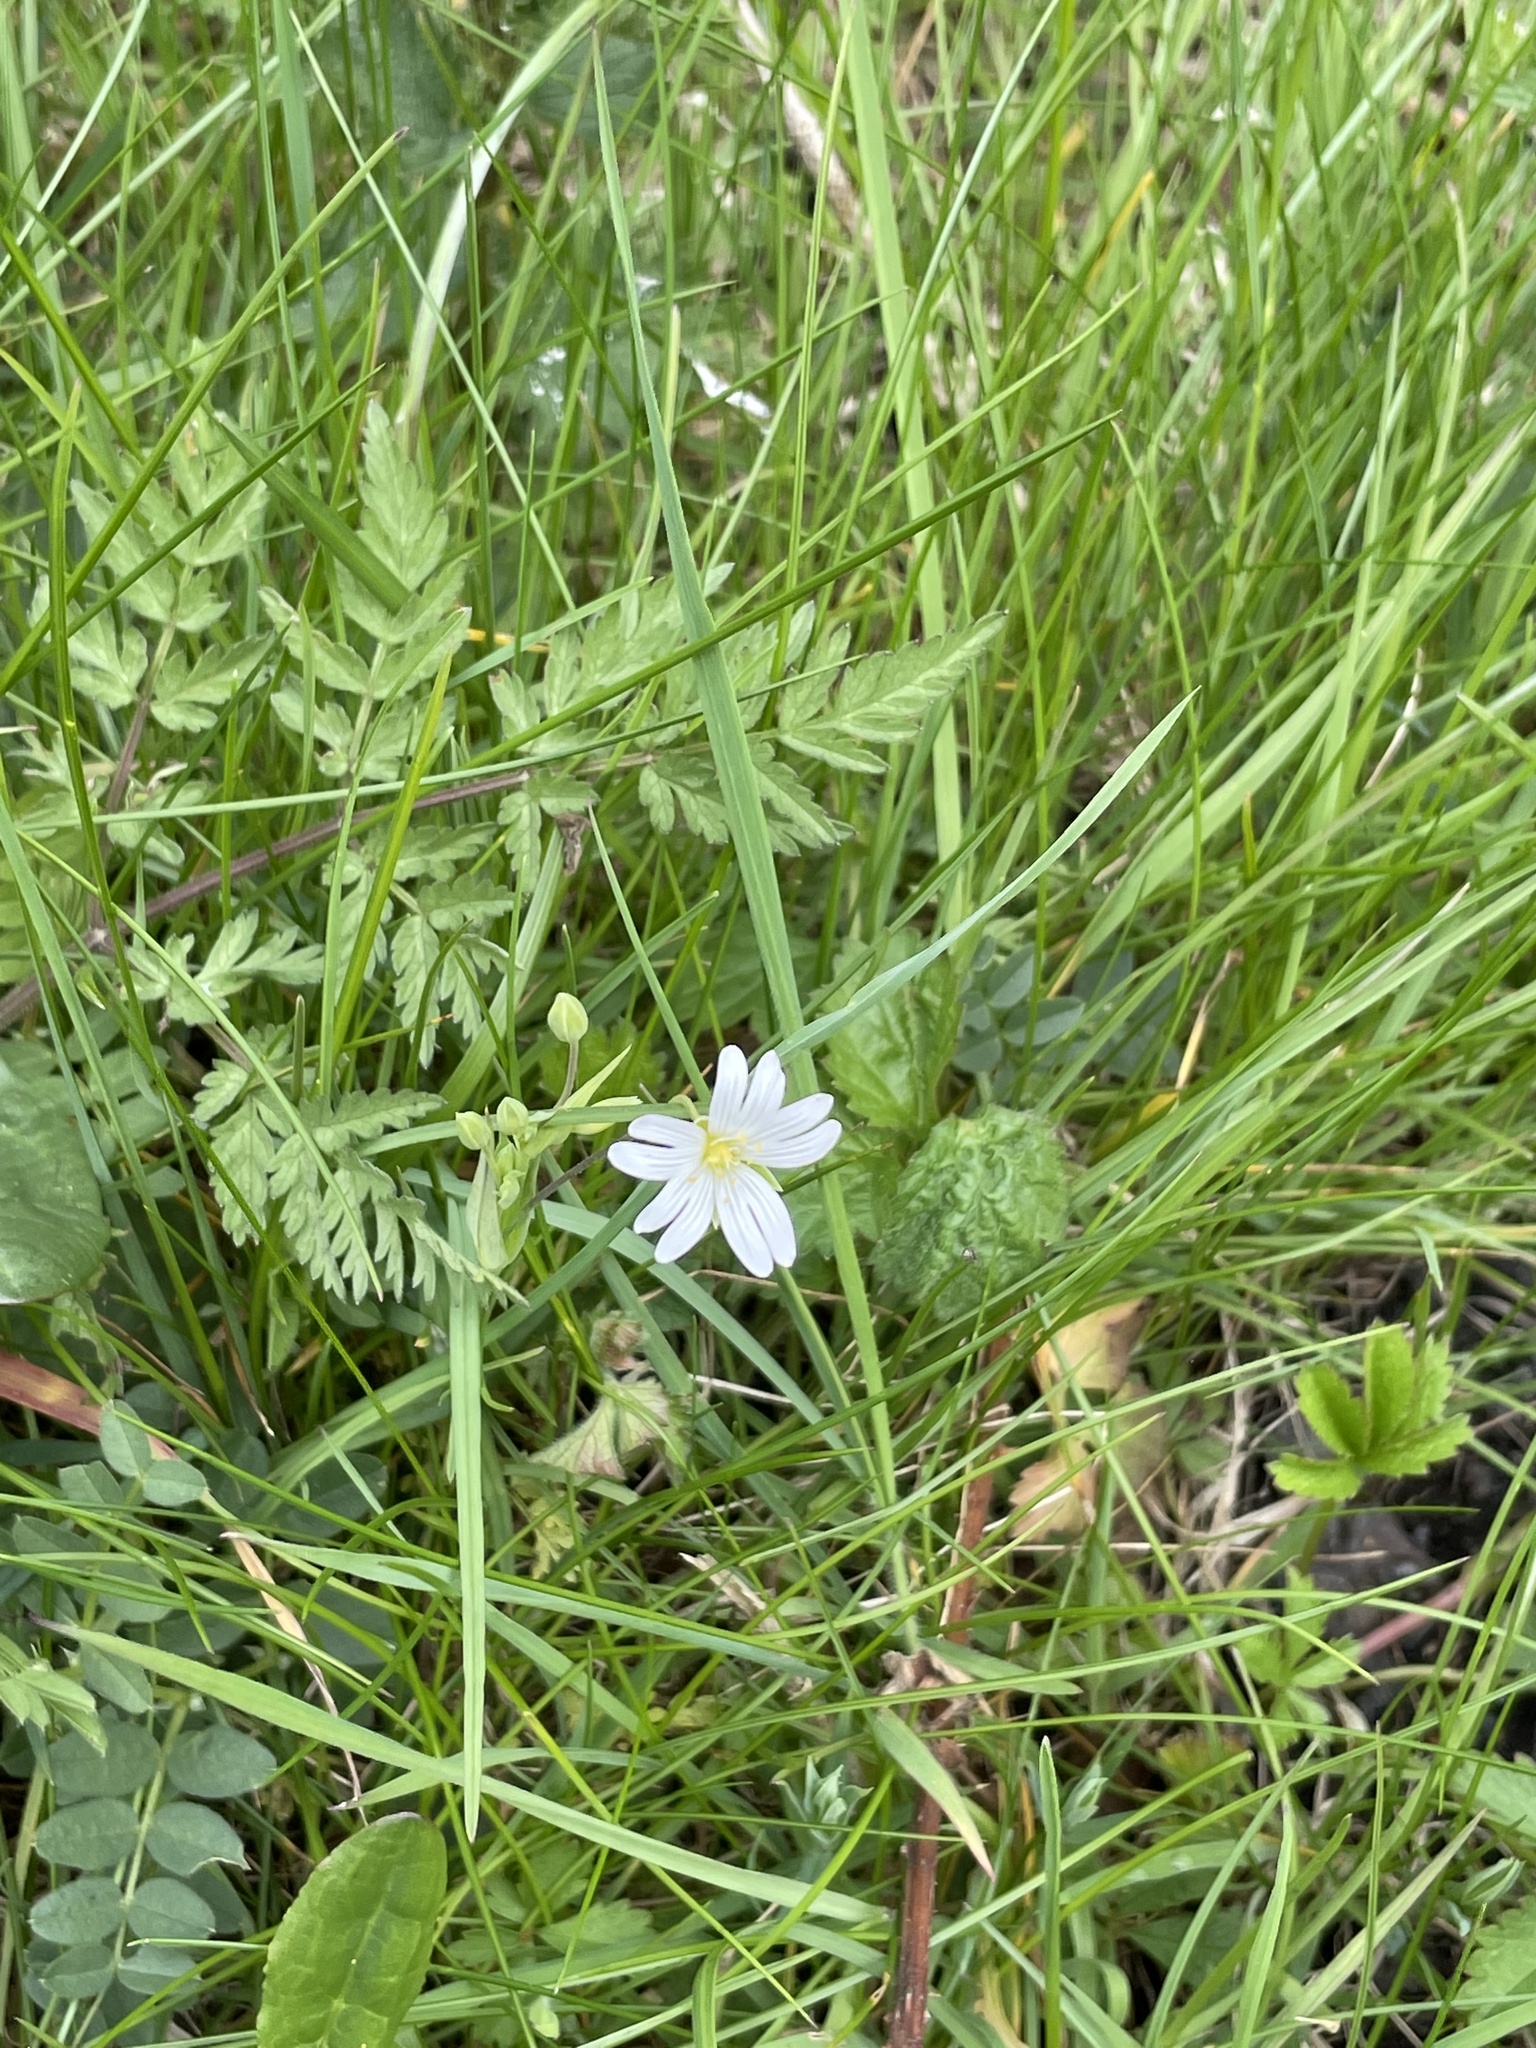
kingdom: Plantae
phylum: Tracheophyta
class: Magnoliopsida
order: Caryophyllales
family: Caryophyllaceae
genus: Rabelera
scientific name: Rabelera holostea
